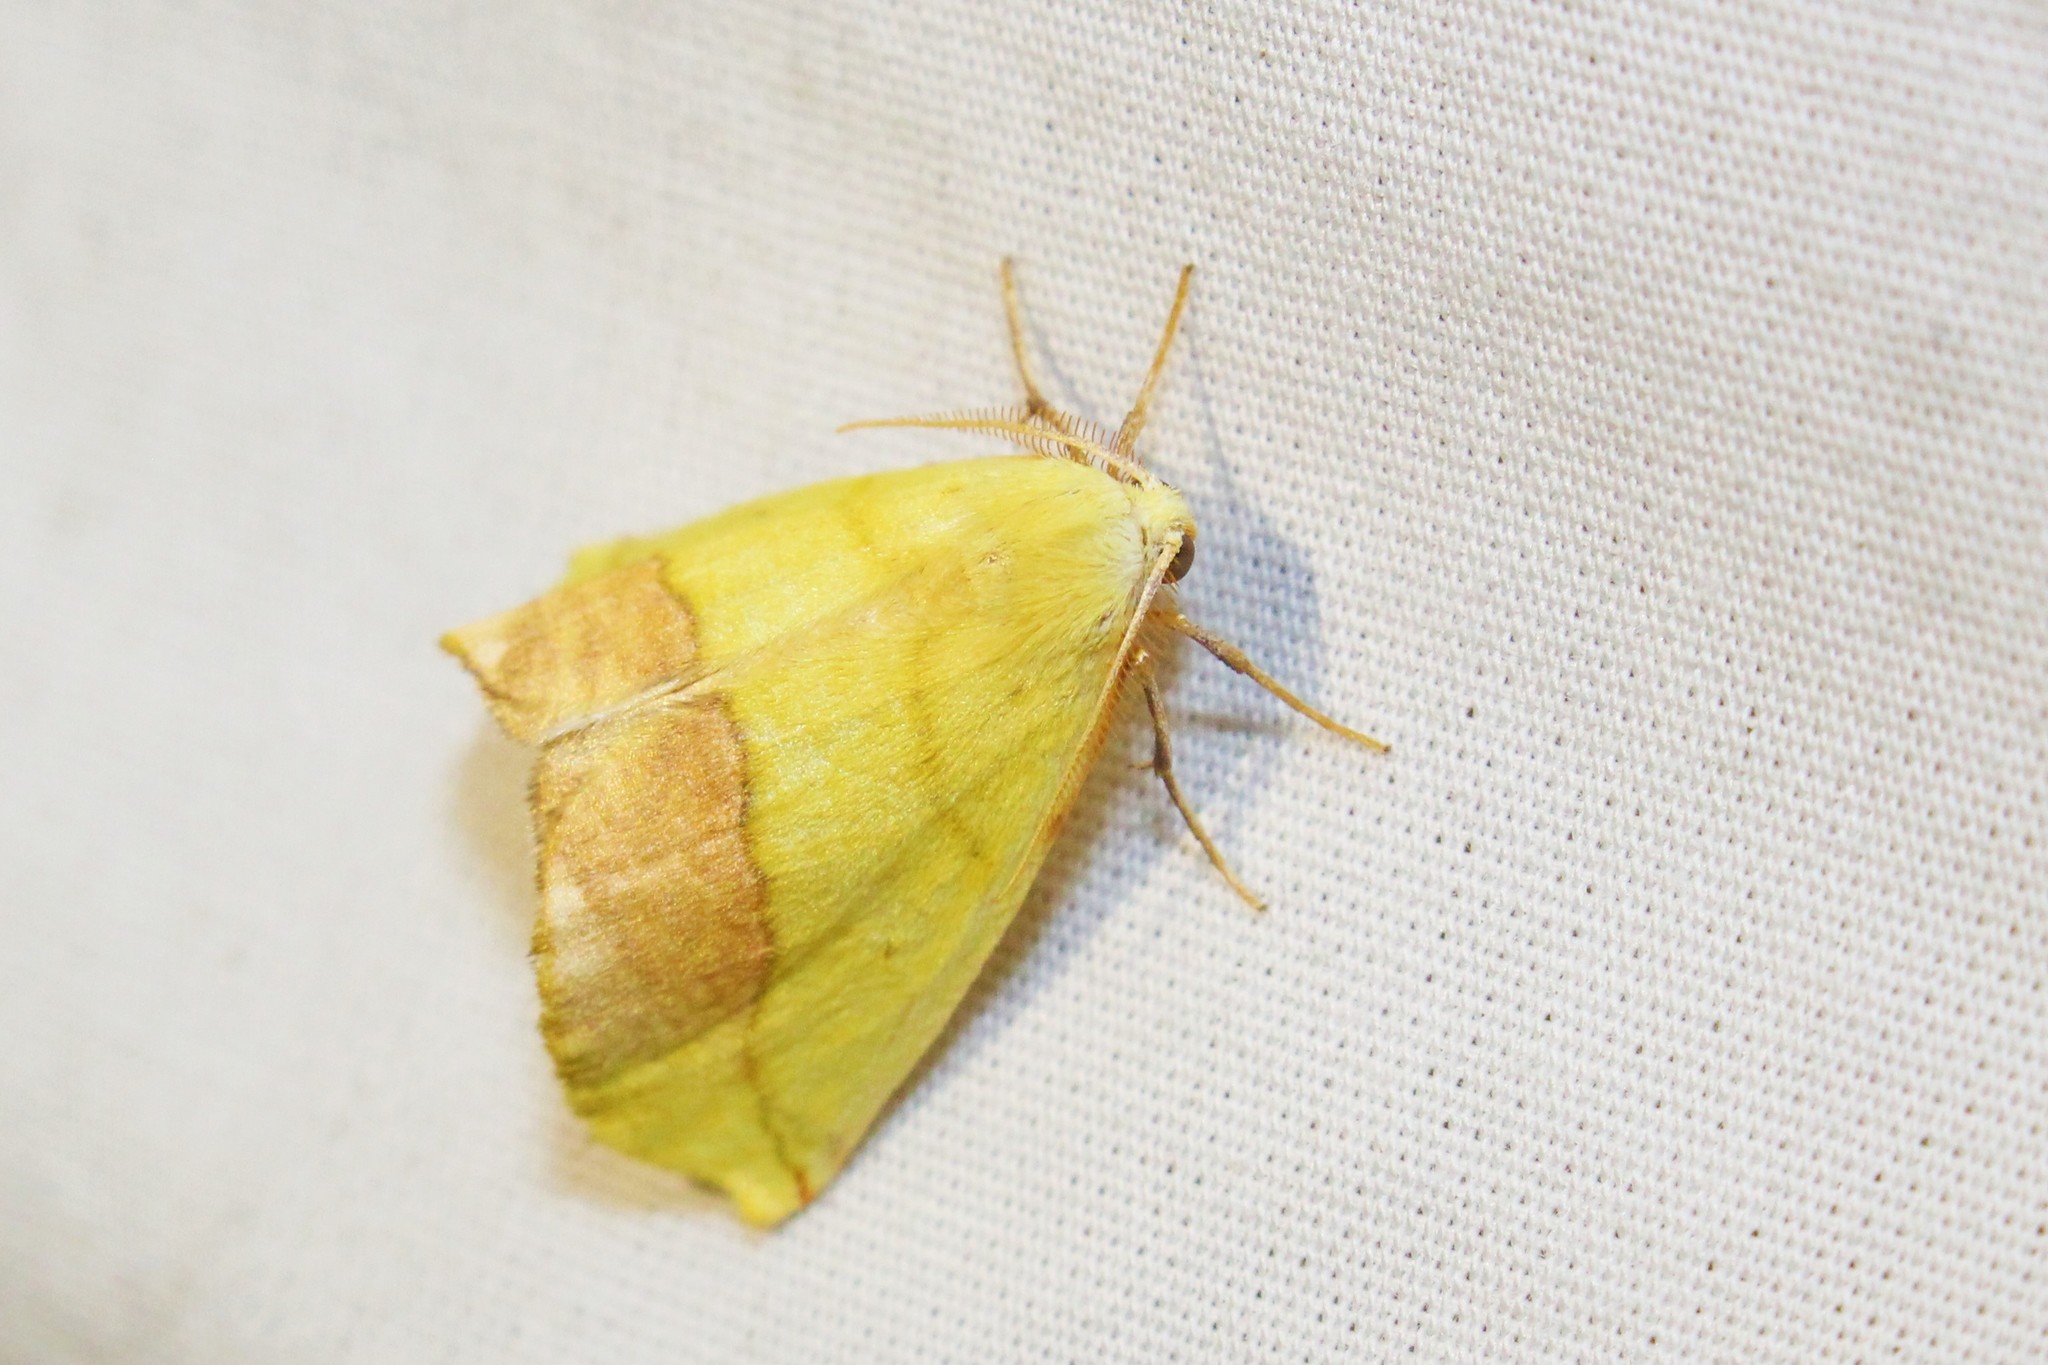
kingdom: Animalia
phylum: Arthropoda
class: Insecta
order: Lepidoptera
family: Geometridae
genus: Sicya
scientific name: Sicya macularia
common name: Sharp-lined yellow
